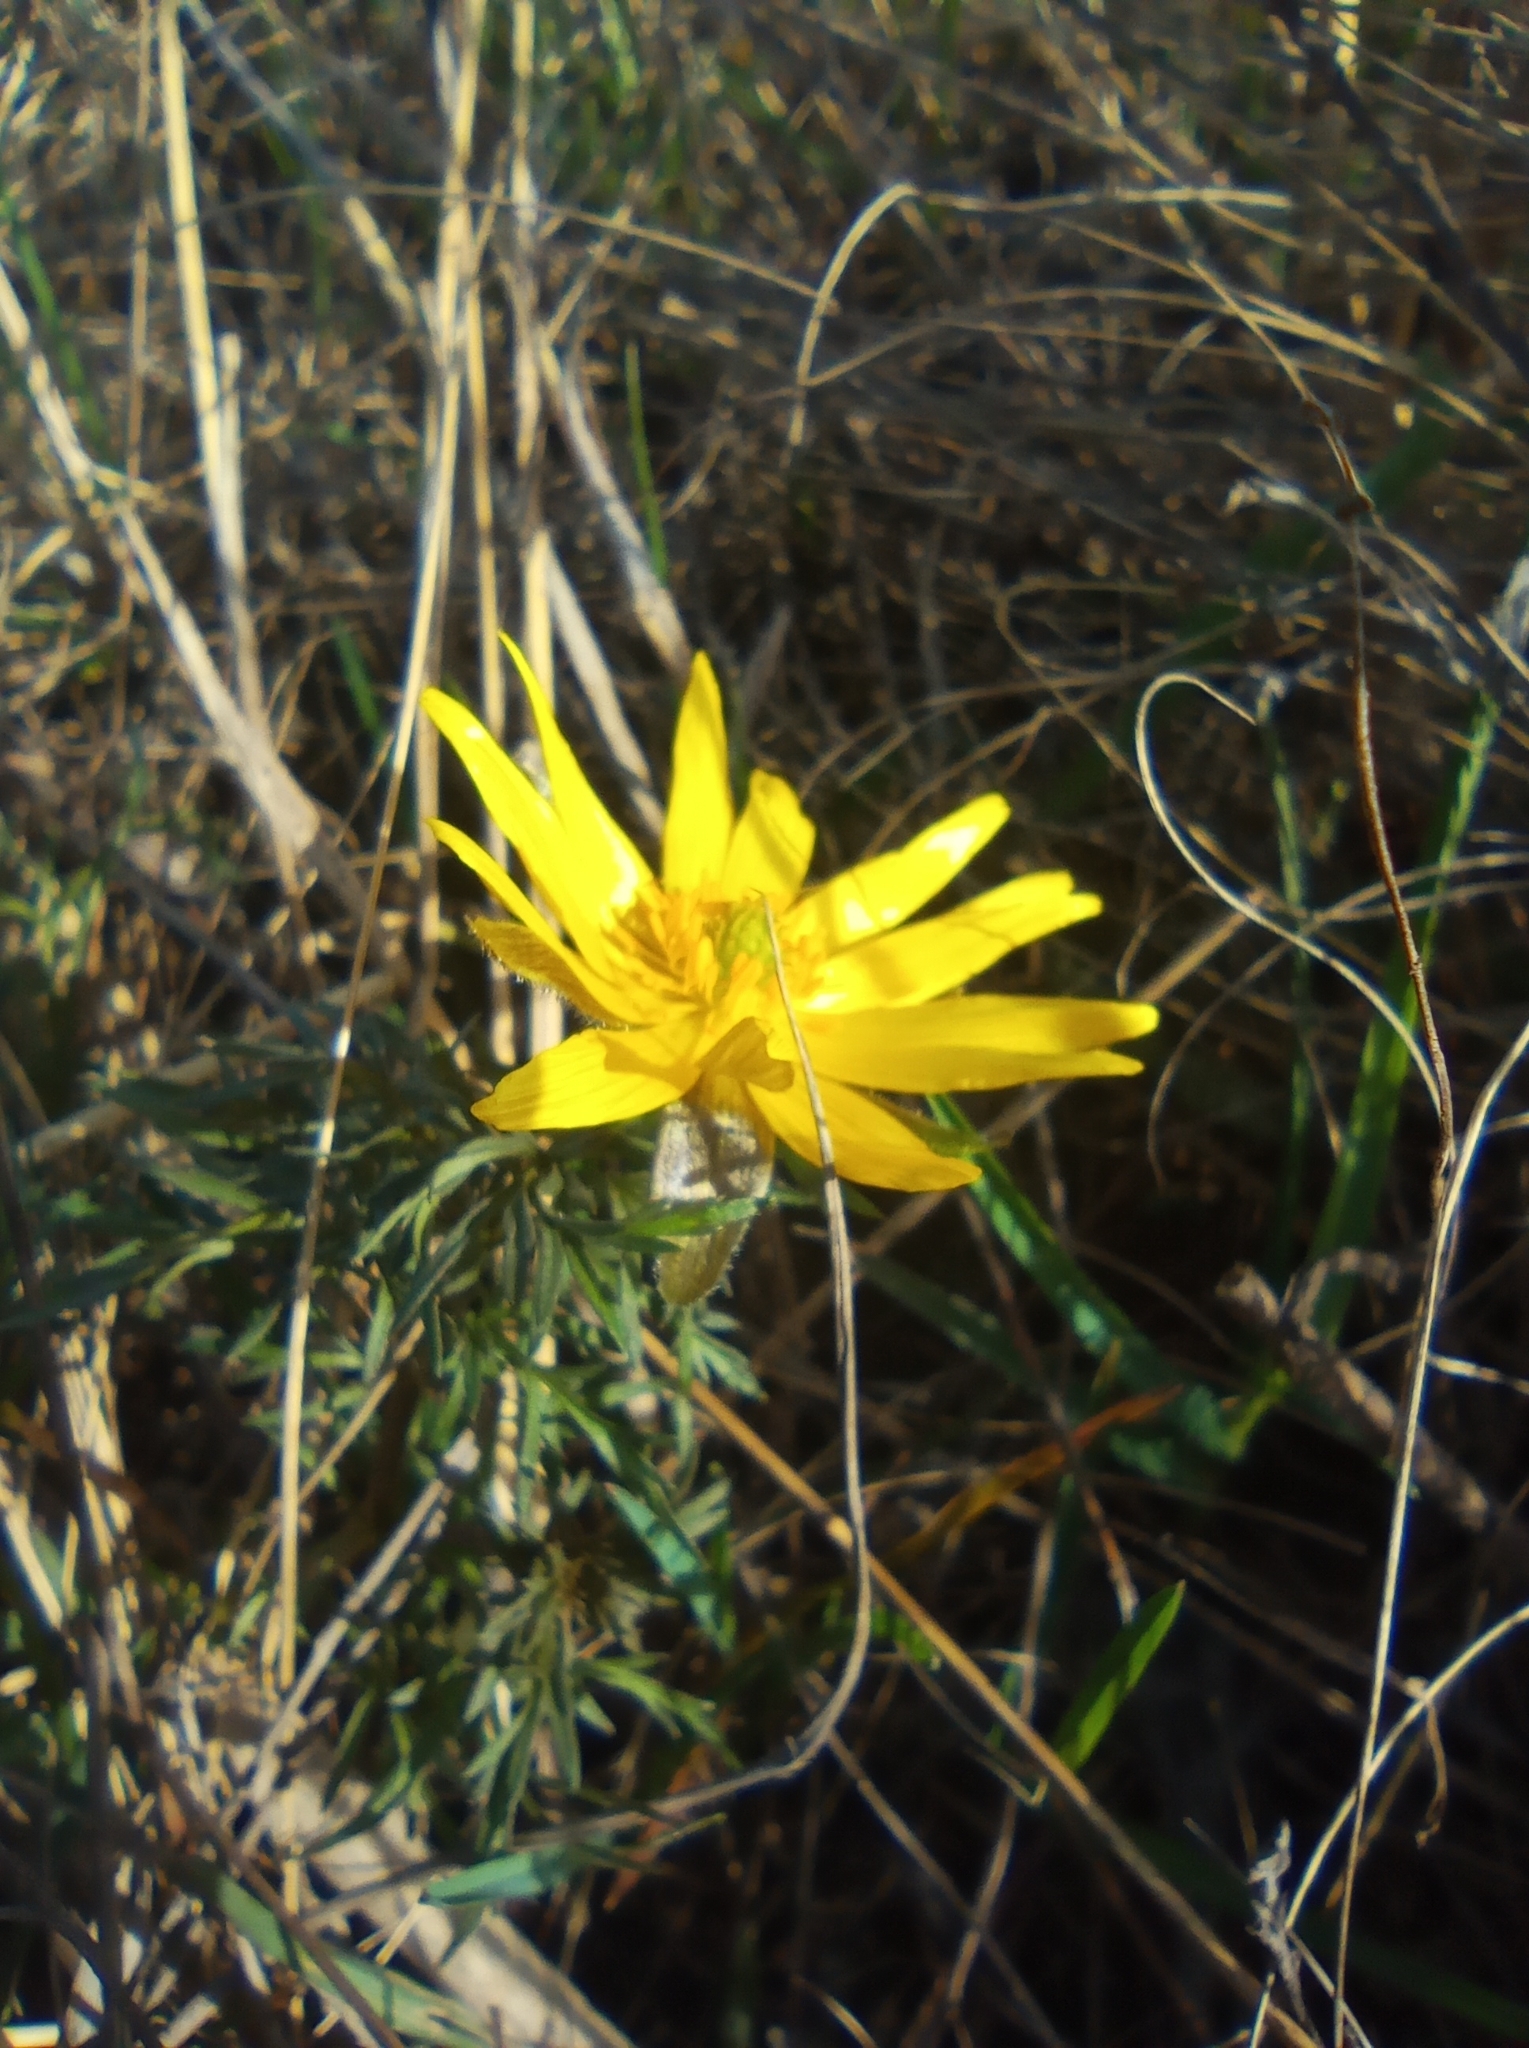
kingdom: Plantae
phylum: Tracheophyta
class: Magnoliopsida
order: Ranunculales
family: Ranunculaceae
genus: Adonis
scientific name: Adonis volgensis
